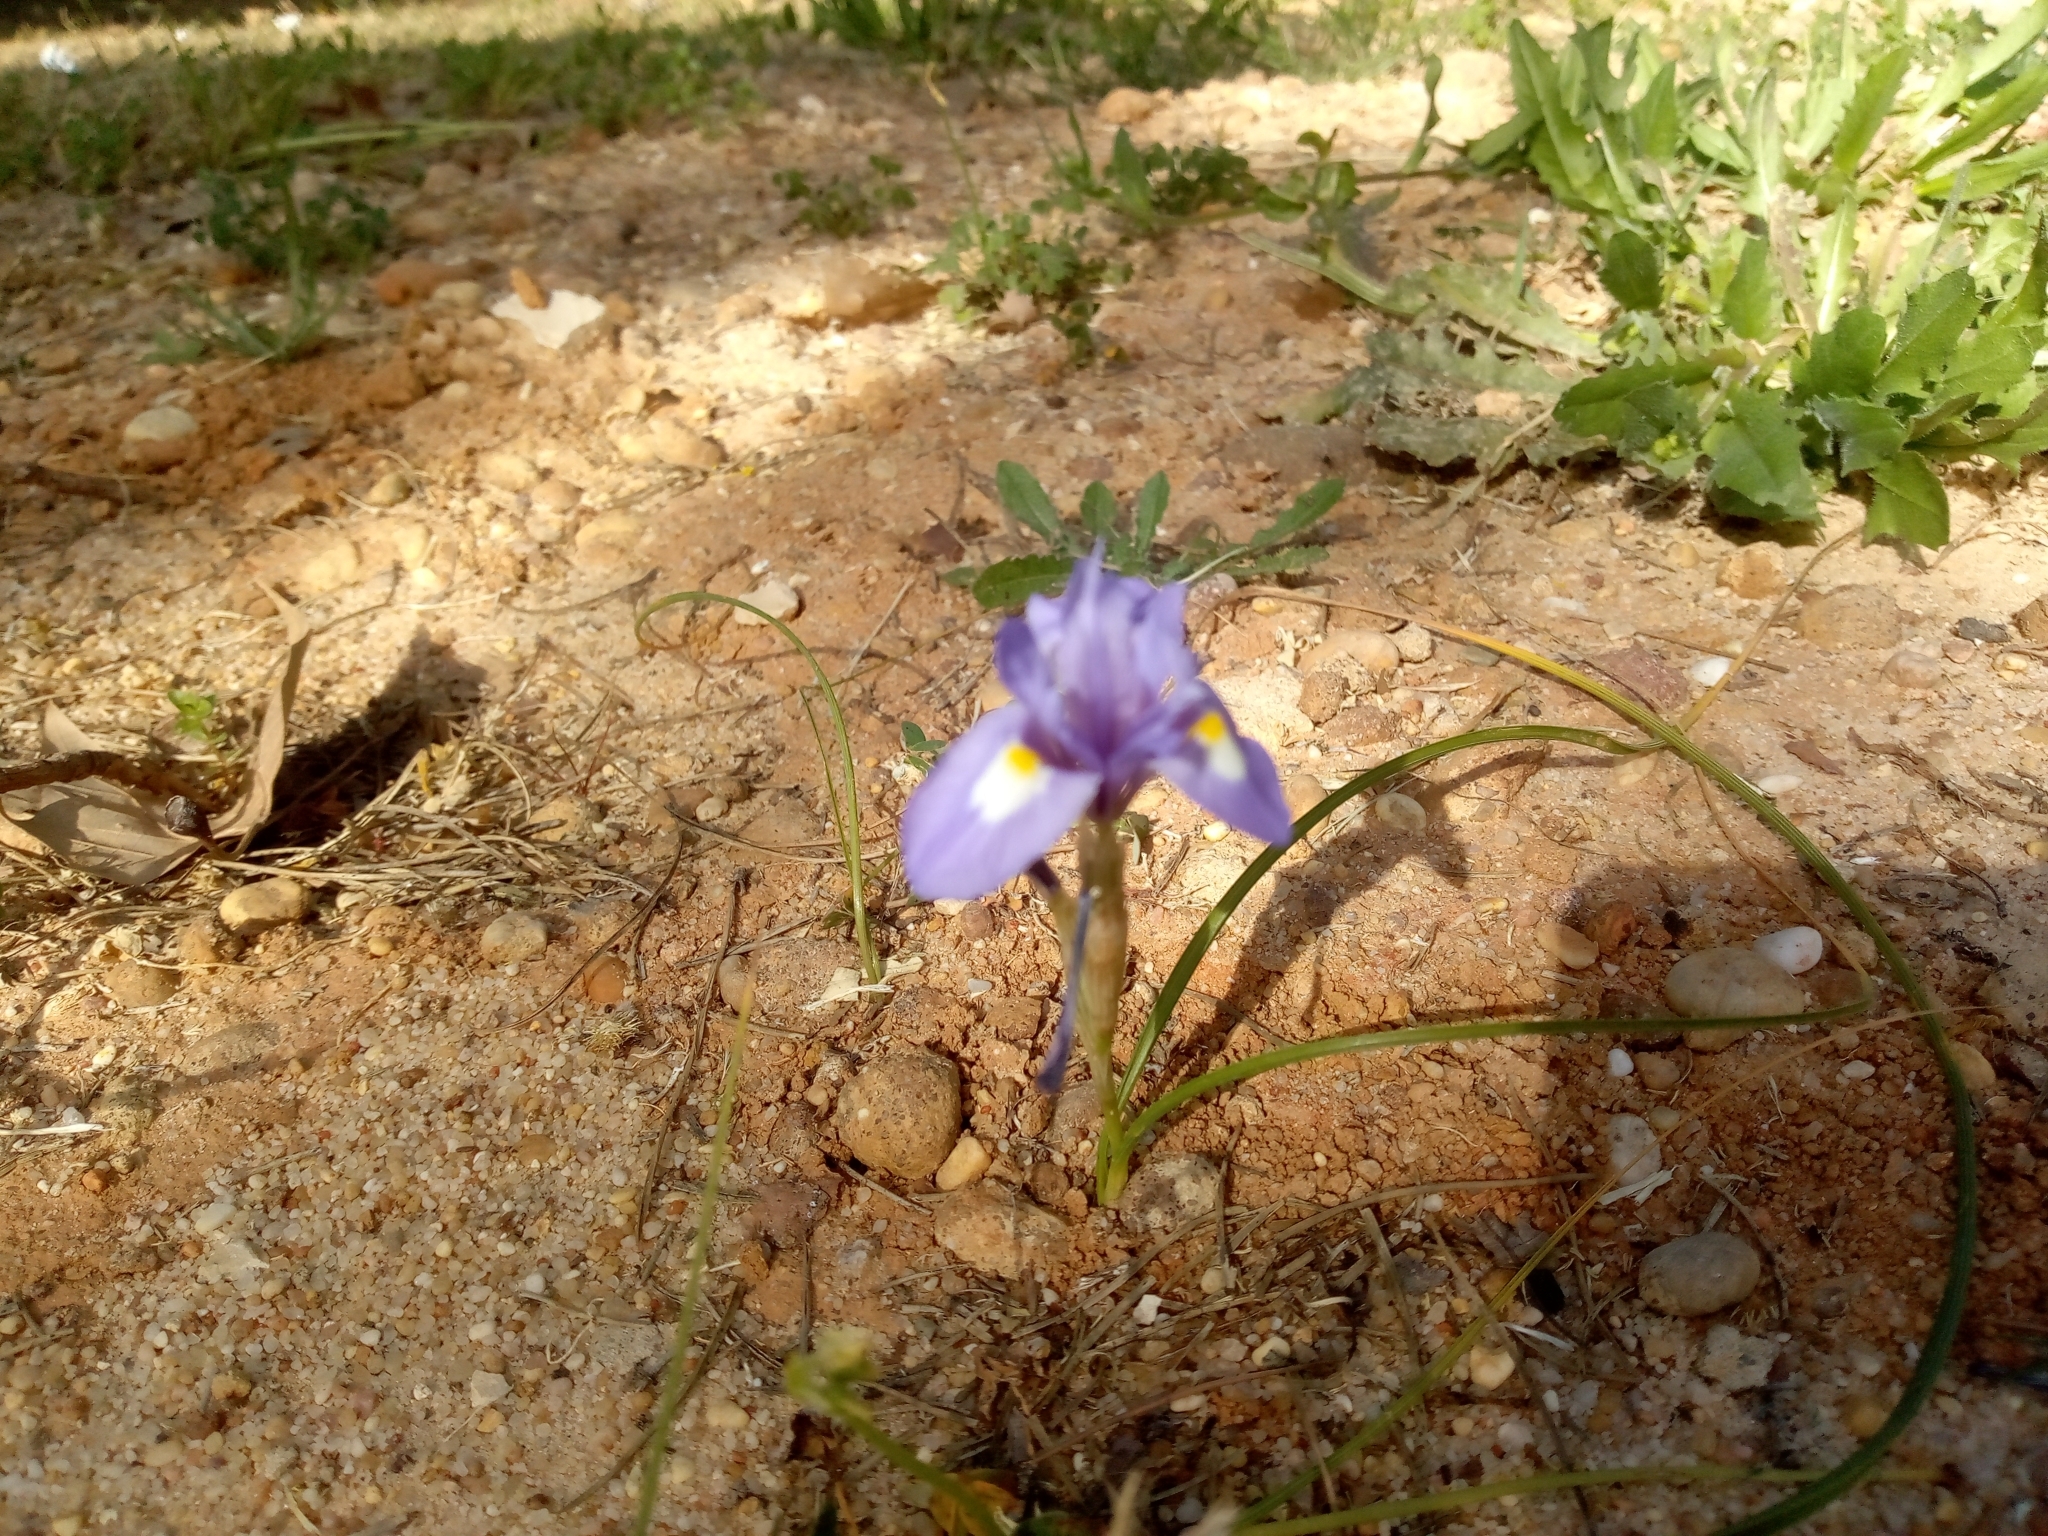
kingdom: Plantae
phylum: Tracheophyta
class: Liliopsida
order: Asparagales
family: Iridaceae
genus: Moraea
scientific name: Moraea sisyrinchium
